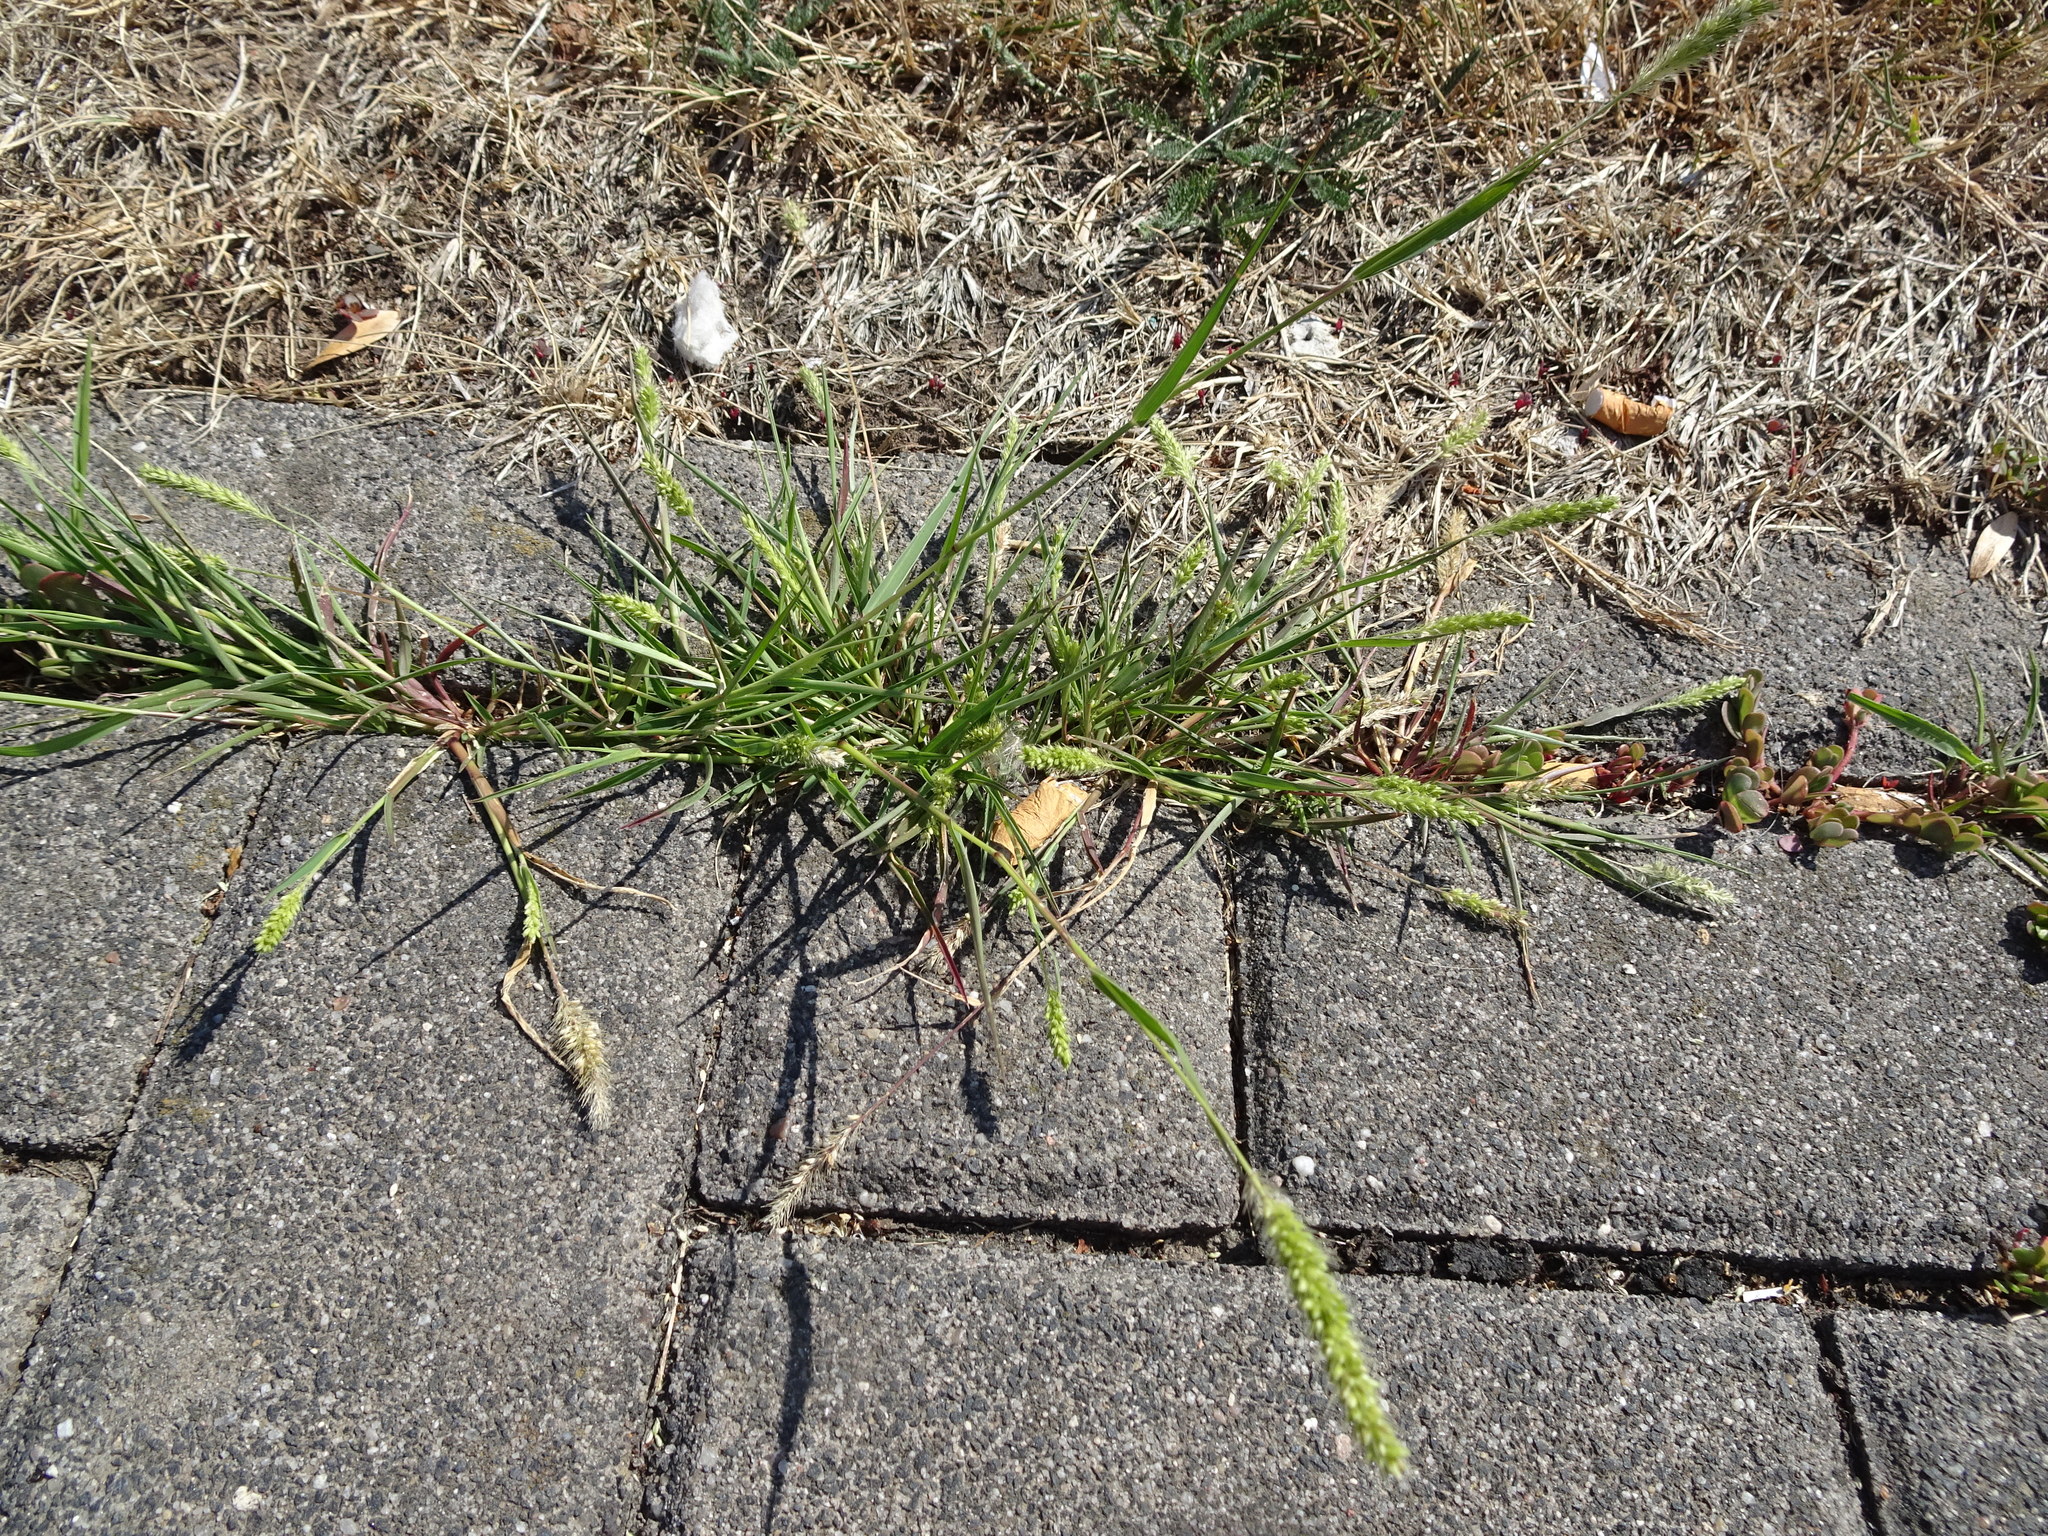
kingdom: Plantae
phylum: Tracheophyta
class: Liliopsida
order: Poales
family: Poaceae
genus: Setaria
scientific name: Setaria viridis
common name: Green bristlegrass
